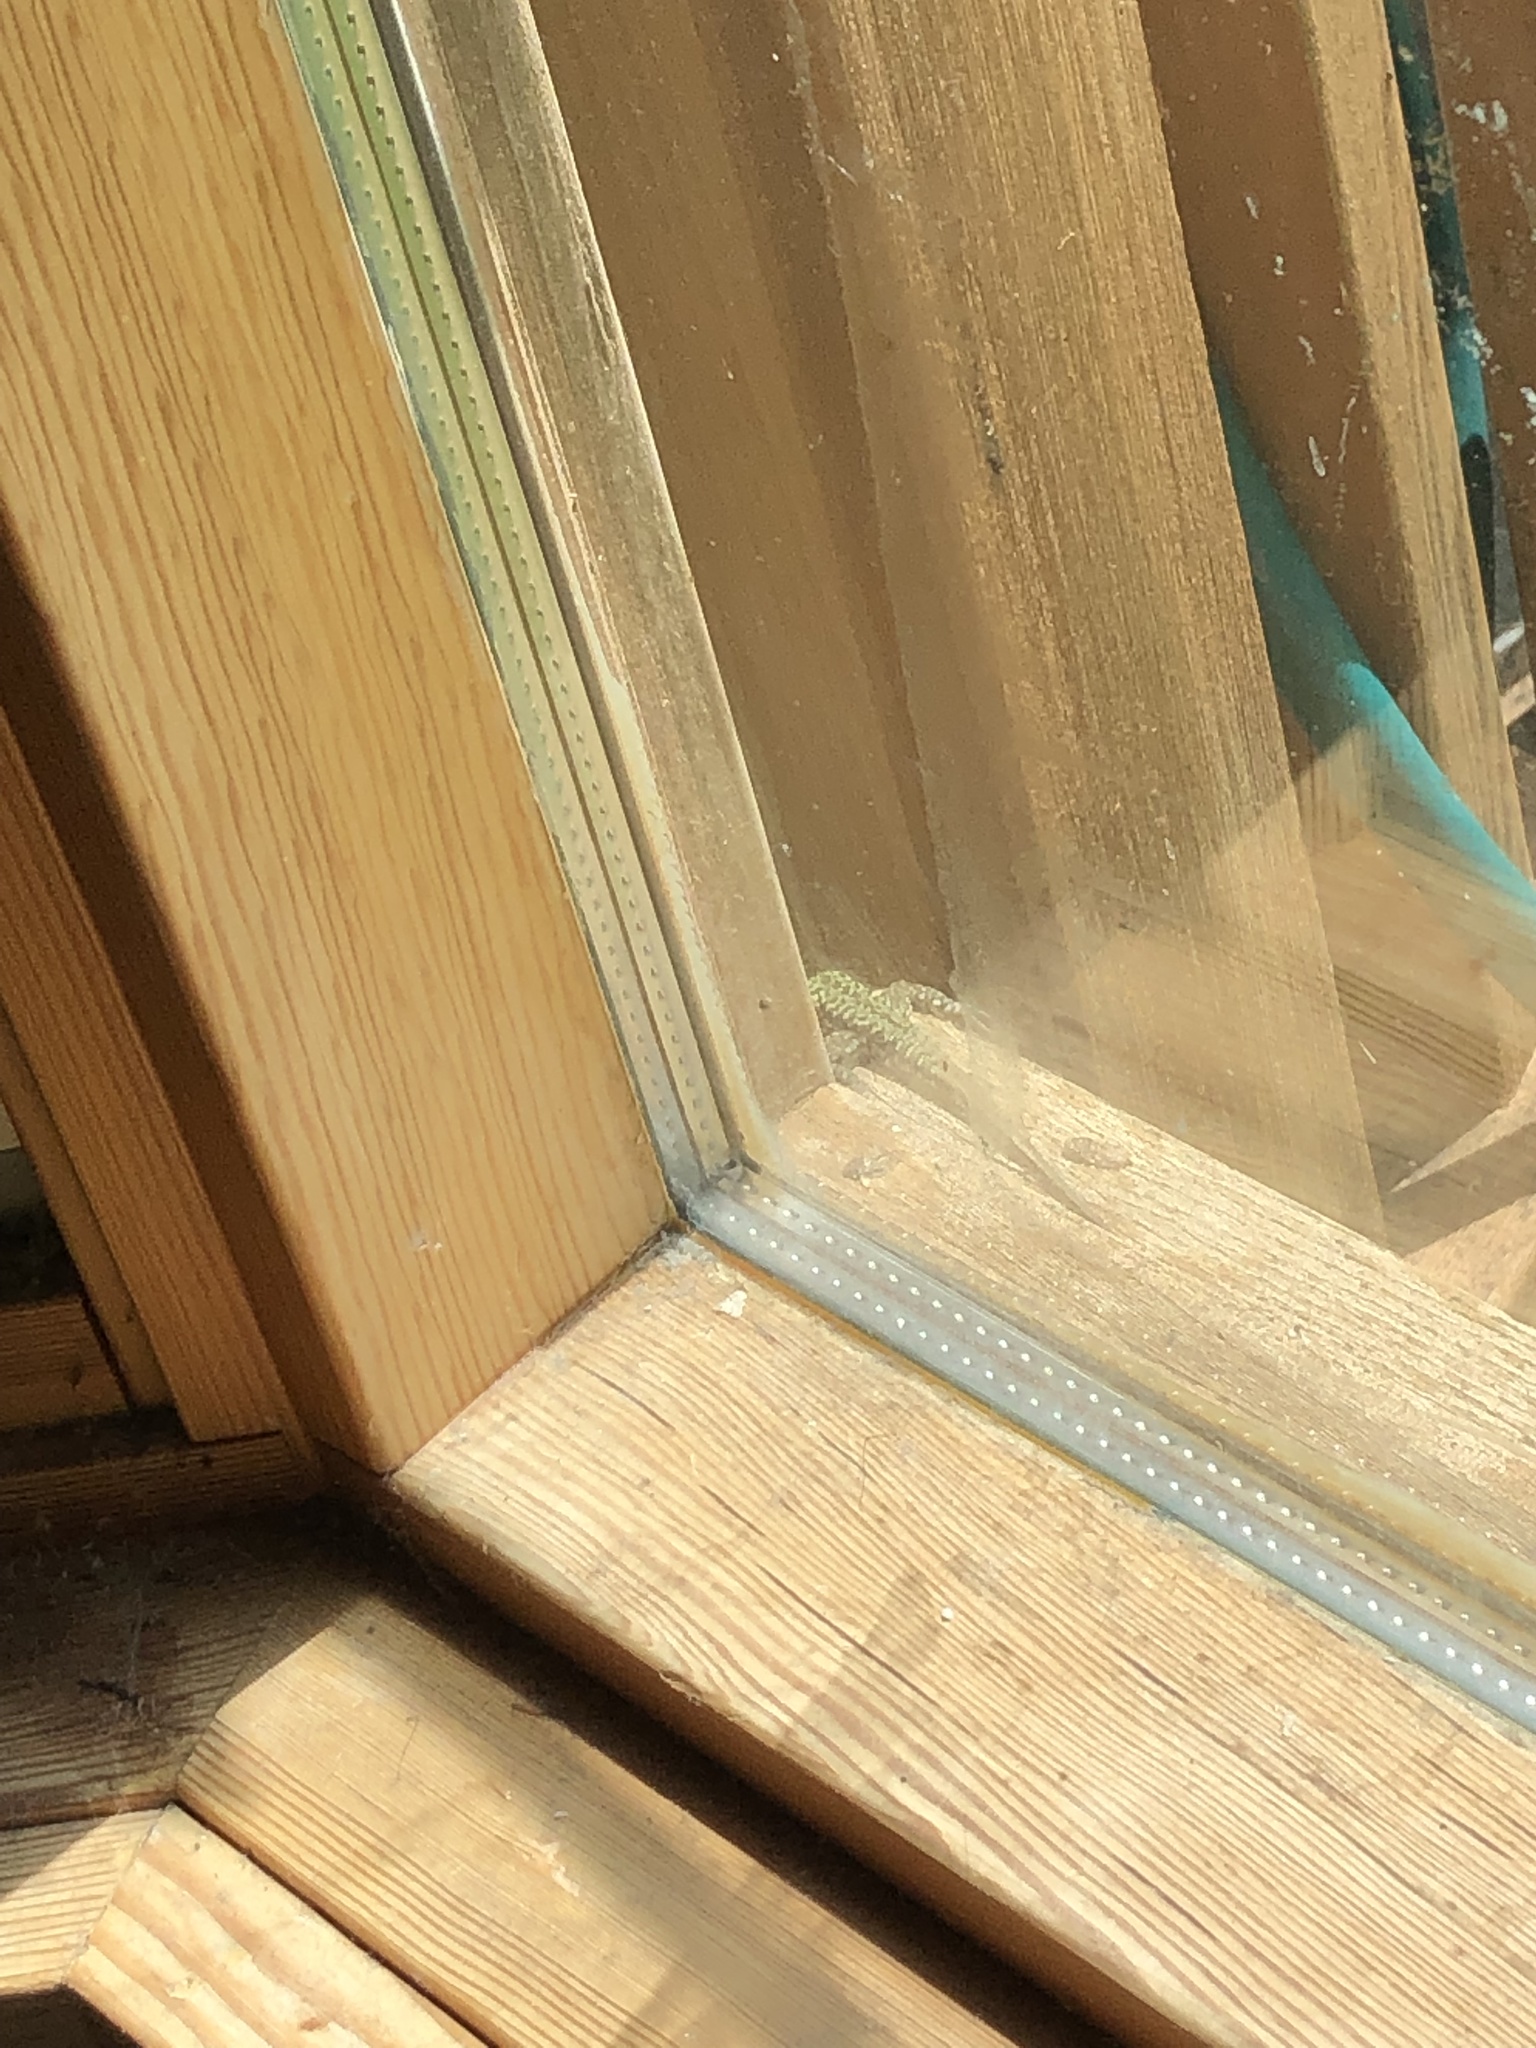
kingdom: Animalia
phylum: Chordata
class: Squamata
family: Lacertidae
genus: Podarcis
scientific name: Podarcis muralis
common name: Common wall lizard
